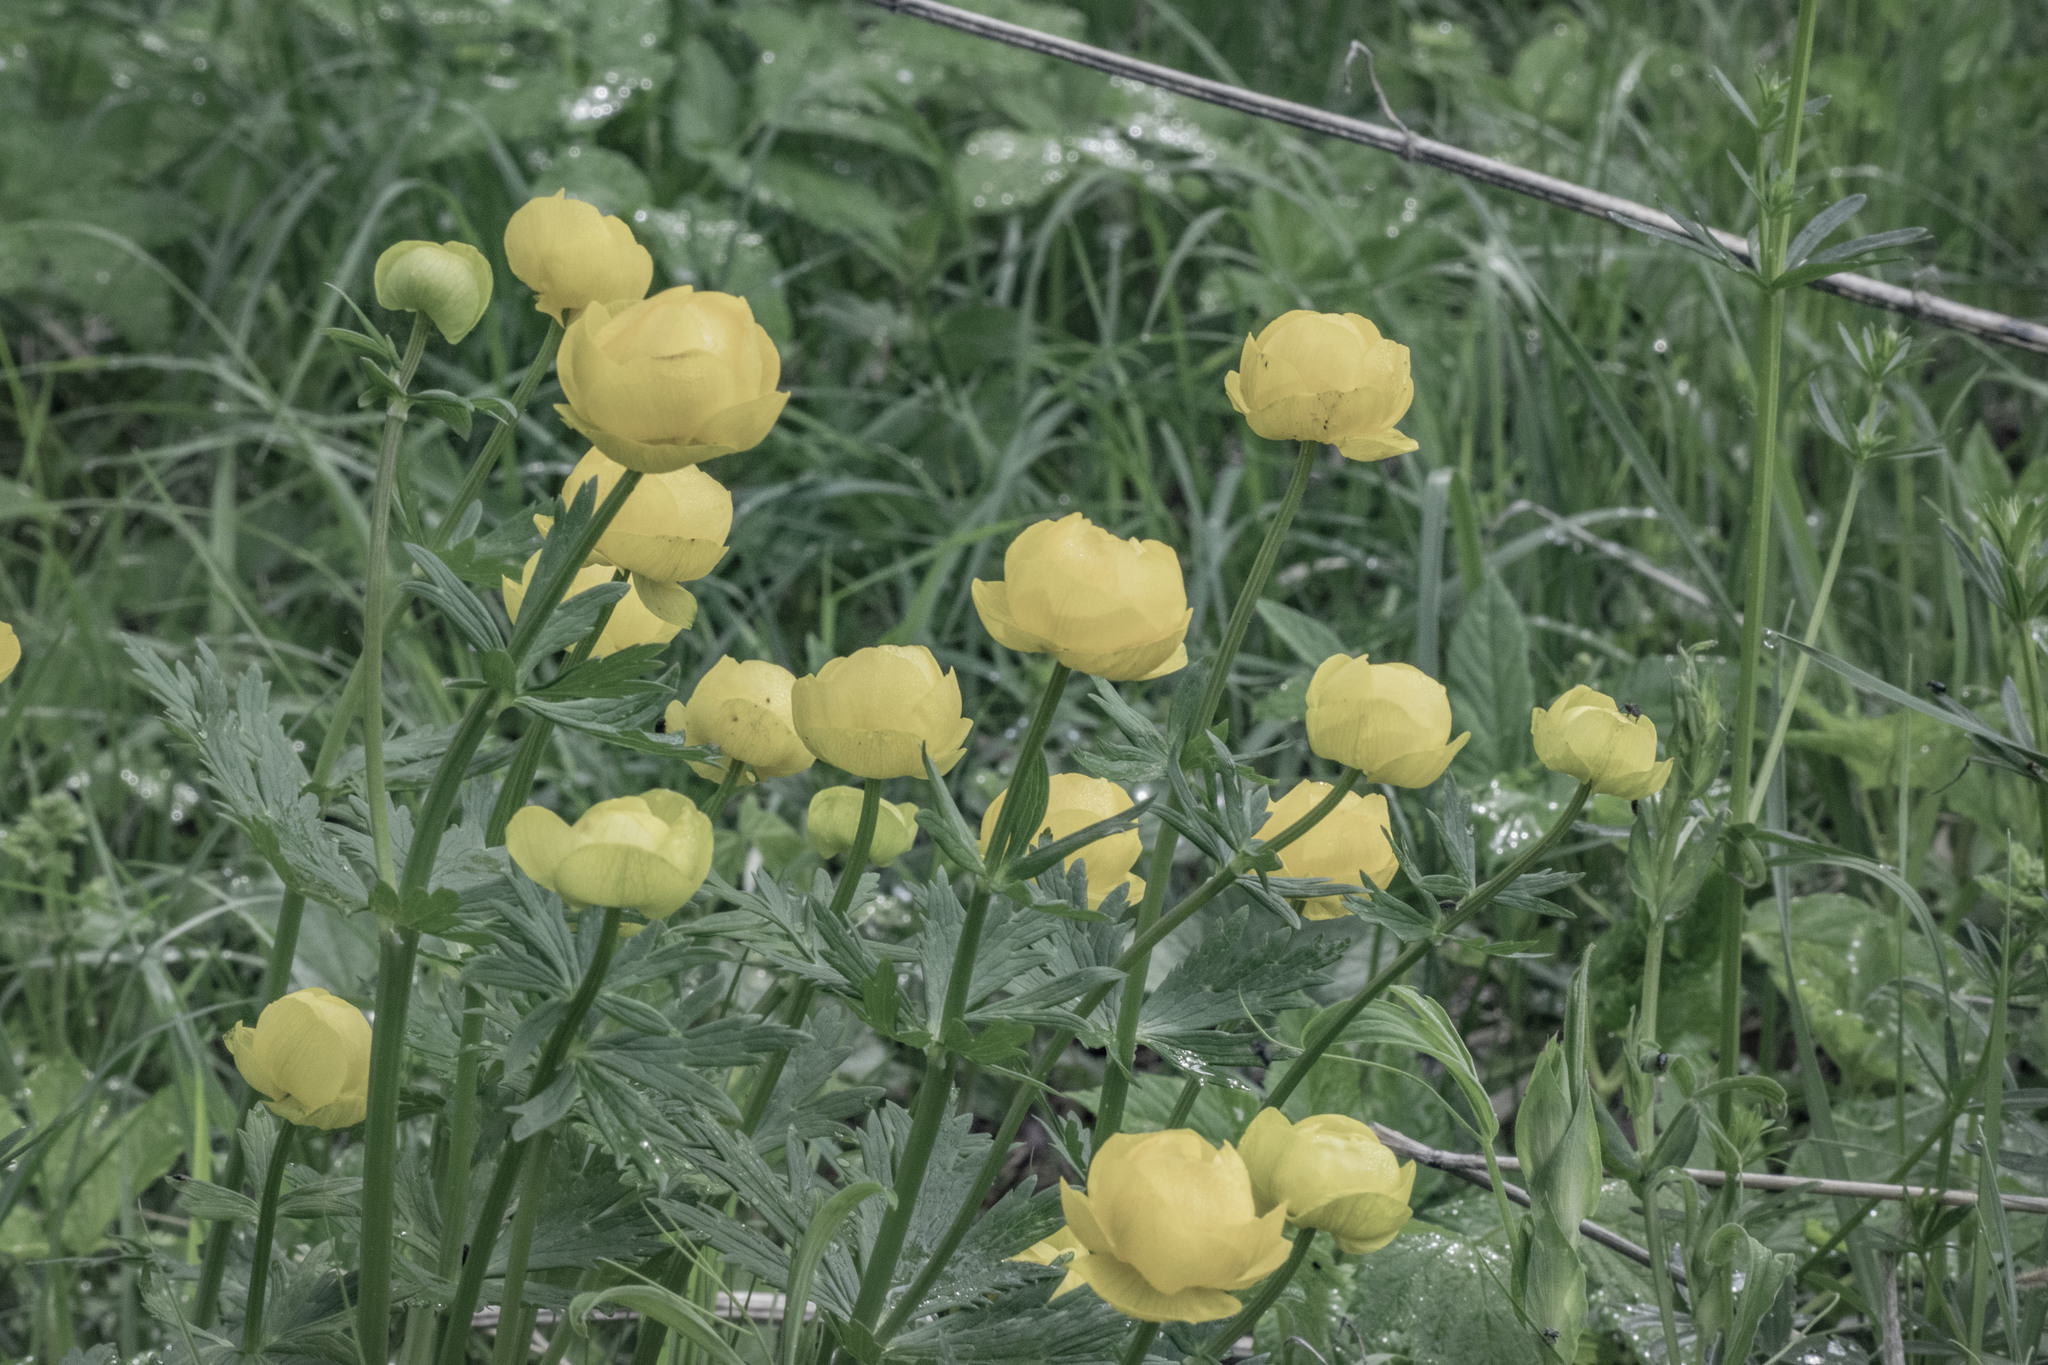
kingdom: Plantae
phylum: Tracheophyta
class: Magnoliopsida
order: Ranunculales
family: Ranunculaceae
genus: Trollius
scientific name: Trollius europaeus
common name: European globeflower
